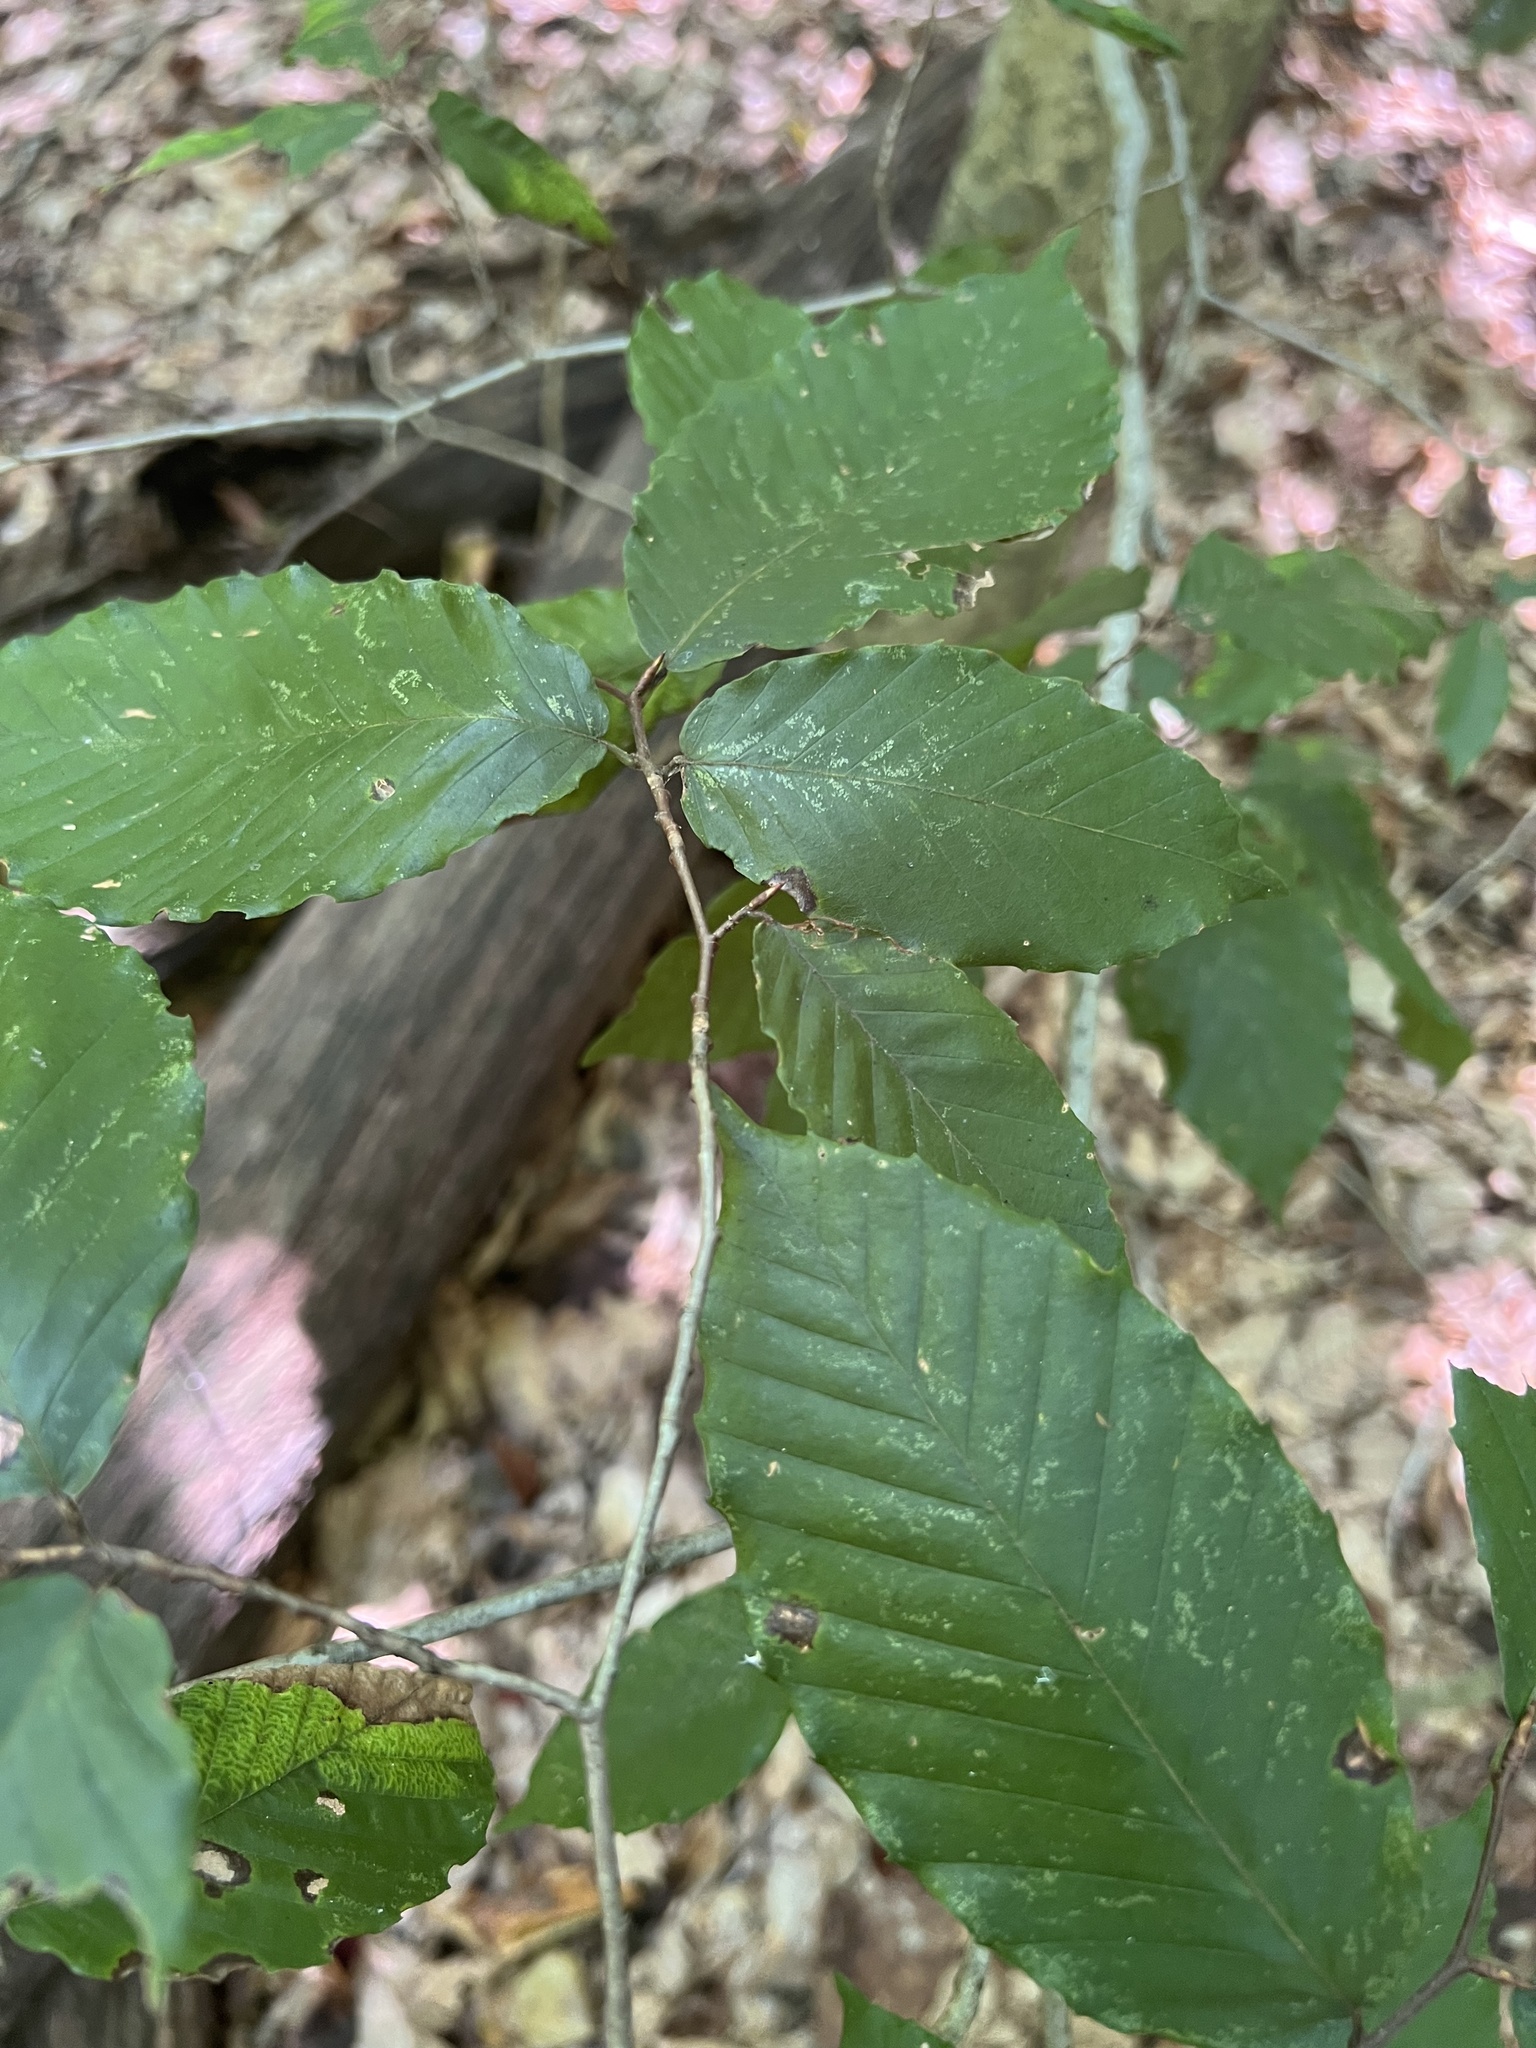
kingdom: Animalia
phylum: Arthropoda
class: Insecta
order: Hemiptera
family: Aphididae
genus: Grylloprociphilus
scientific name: Grylloprociphilus imbricator
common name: Beech blight aphid
